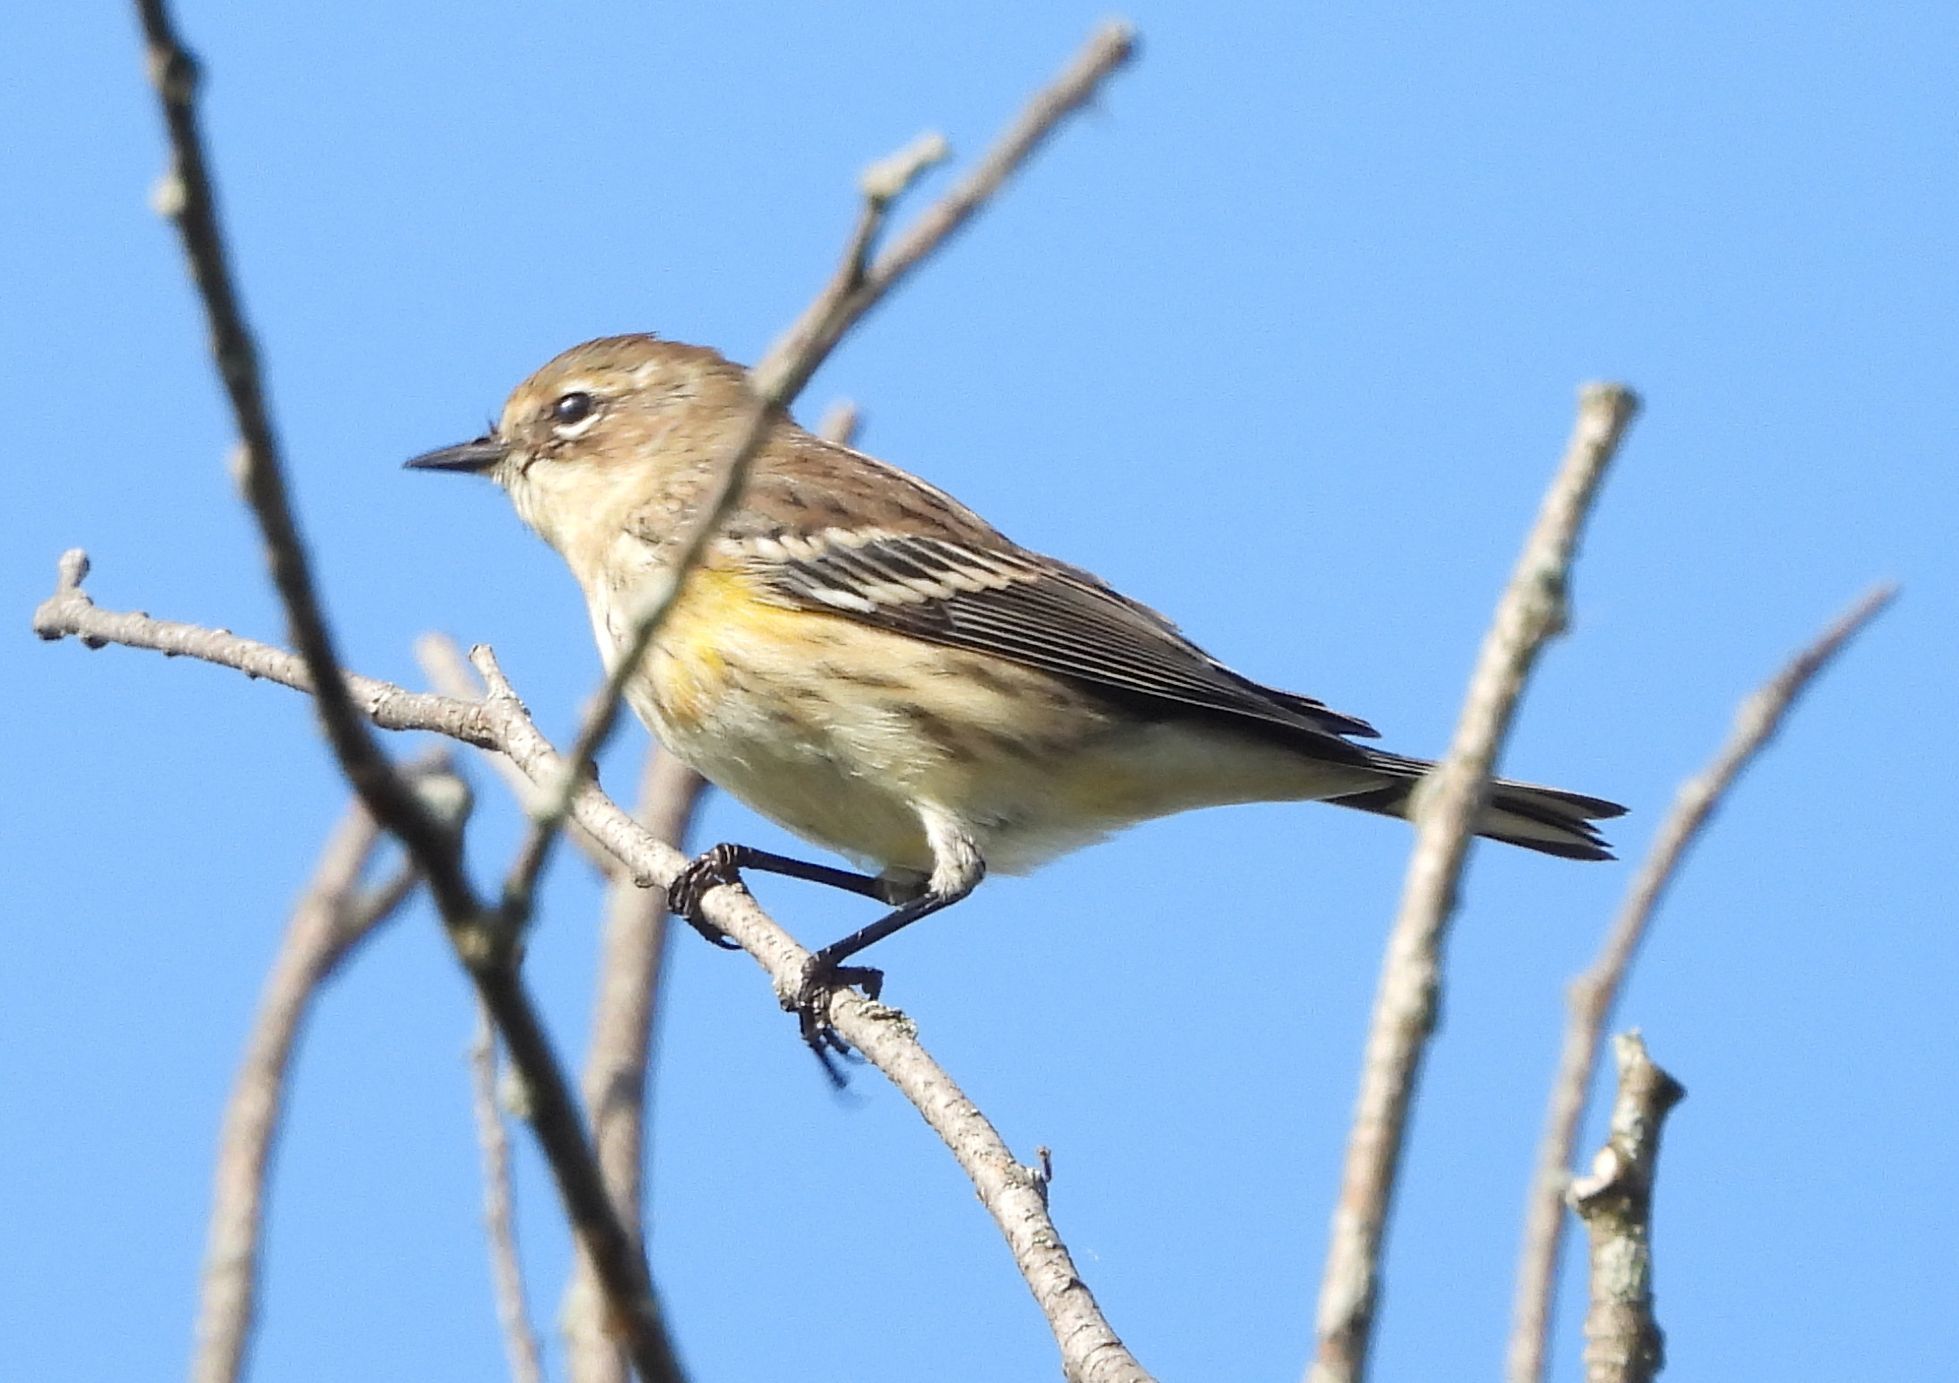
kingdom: Animalia
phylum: Chordata
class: Aves
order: Passeriformes
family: Parulidae
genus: Setophaga
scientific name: Setophaga coronata
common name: Myrtle warbler
